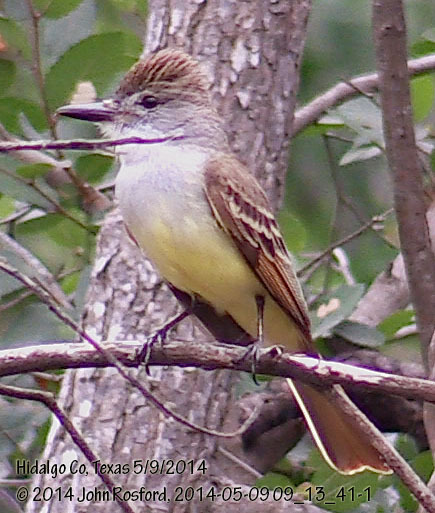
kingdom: Animalia
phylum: Chordata
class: Aves
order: Passeriformes
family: Tyrannidae
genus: Myiarchus
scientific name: Myiarchus tyrannulus
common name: Brown-crested flycatcher
